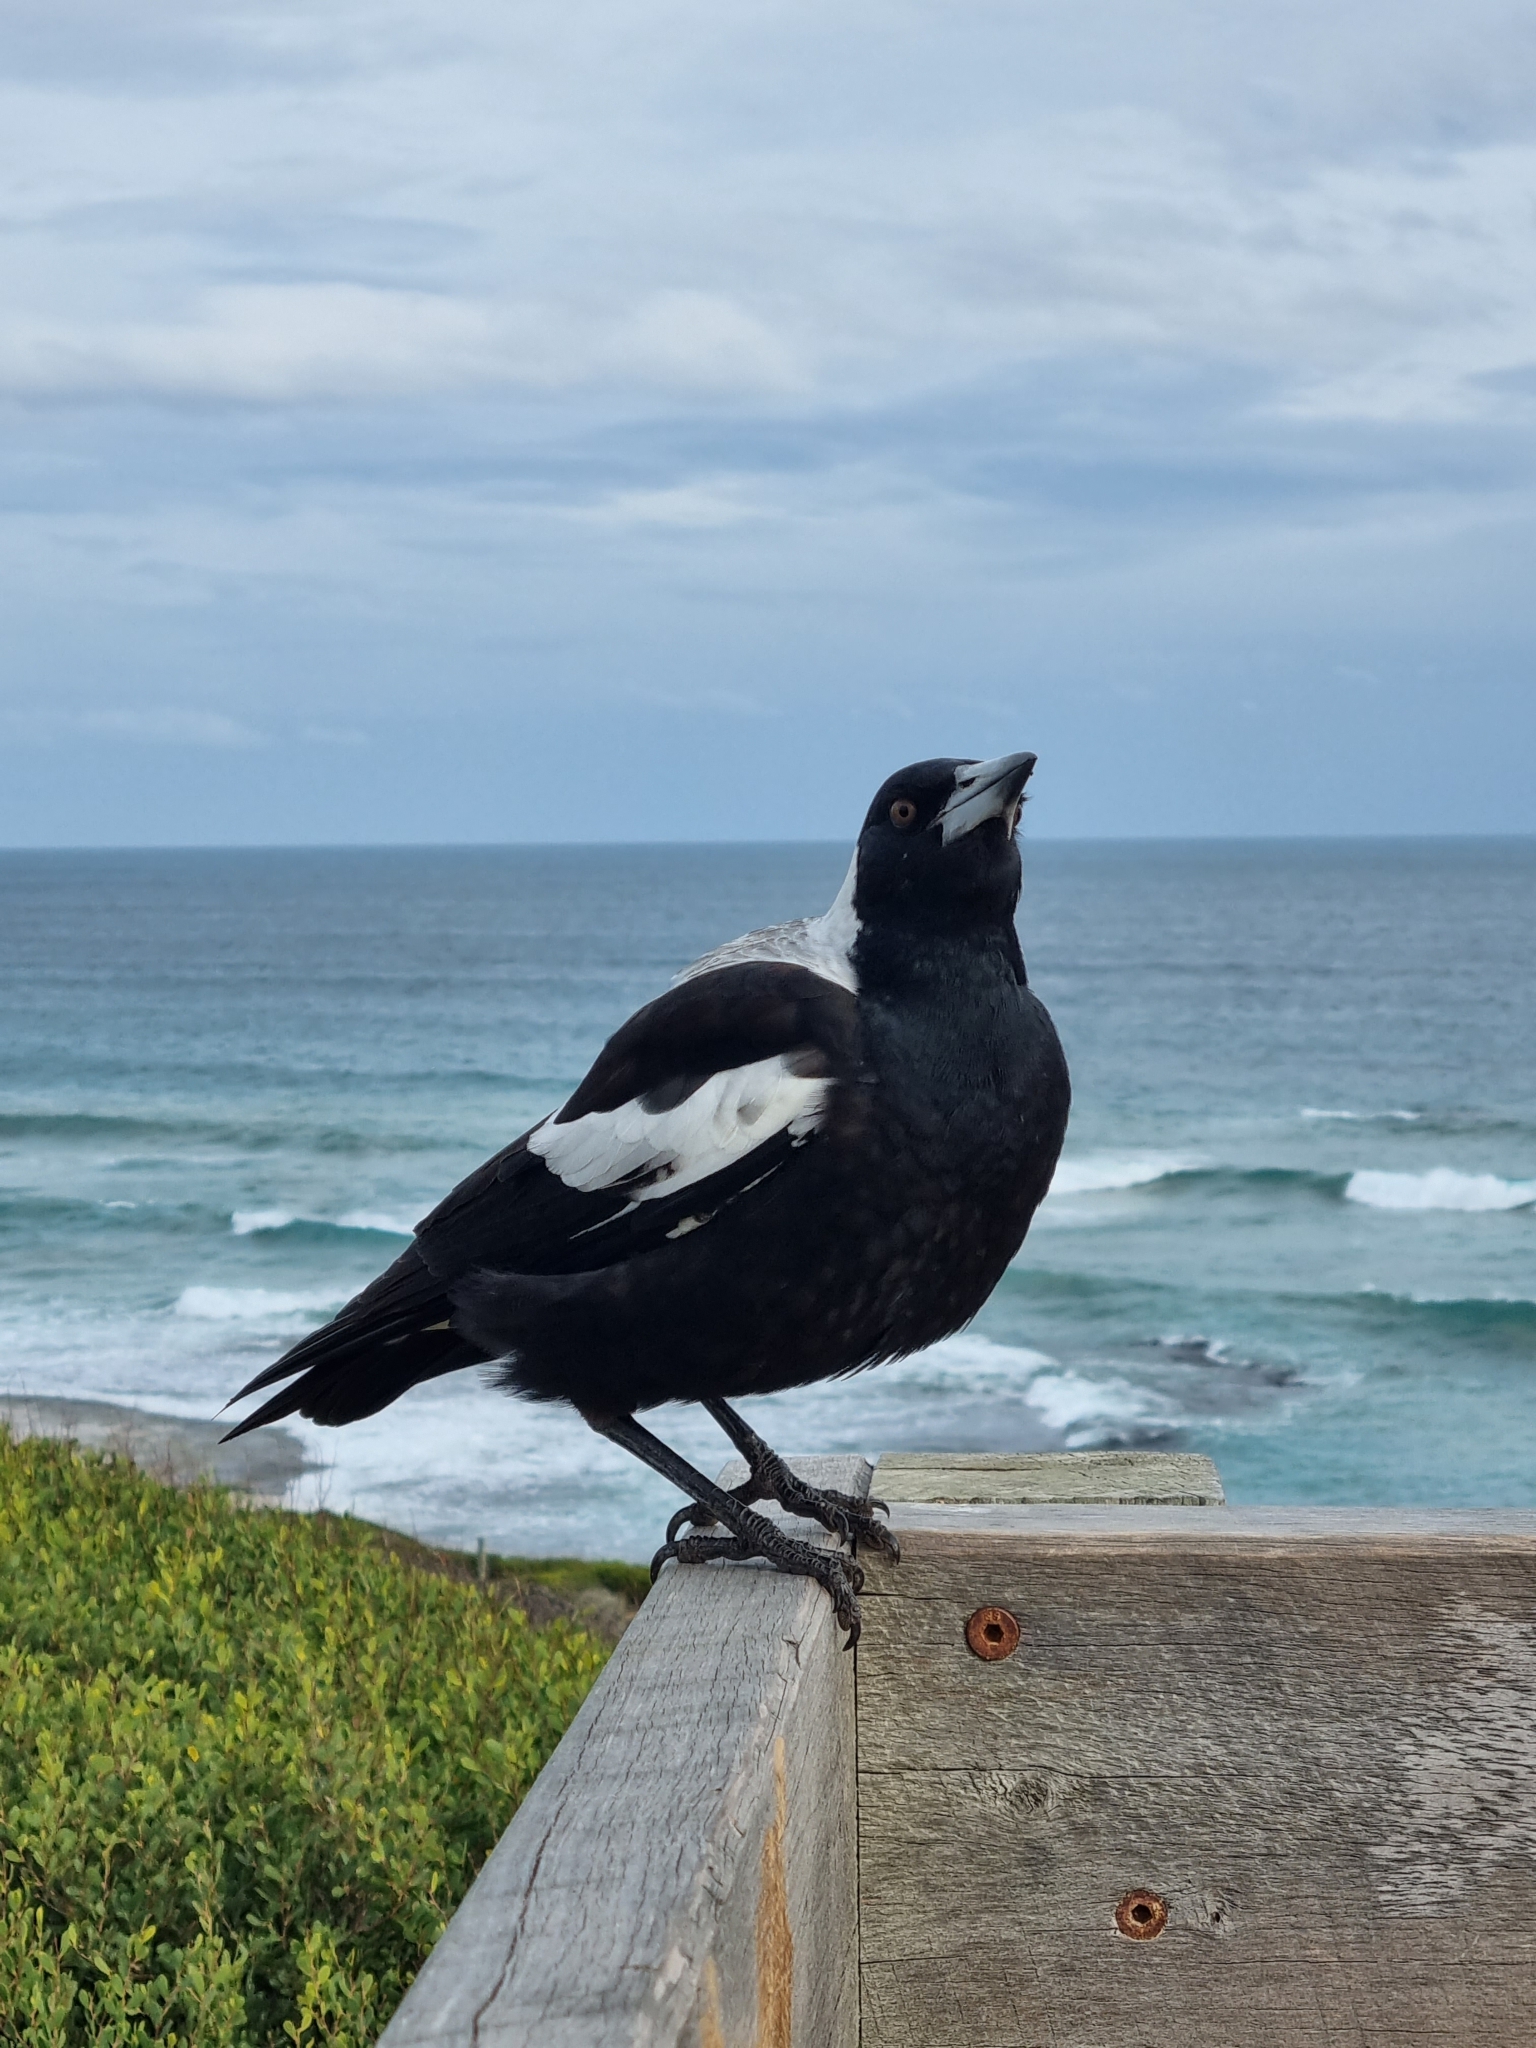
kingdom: Animalia
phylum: Chordata
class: Aves
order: Passeriformes
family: Cracticidae
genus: Gymnorhina
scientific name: Gymnorhina tibicen
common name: Australian magpie
